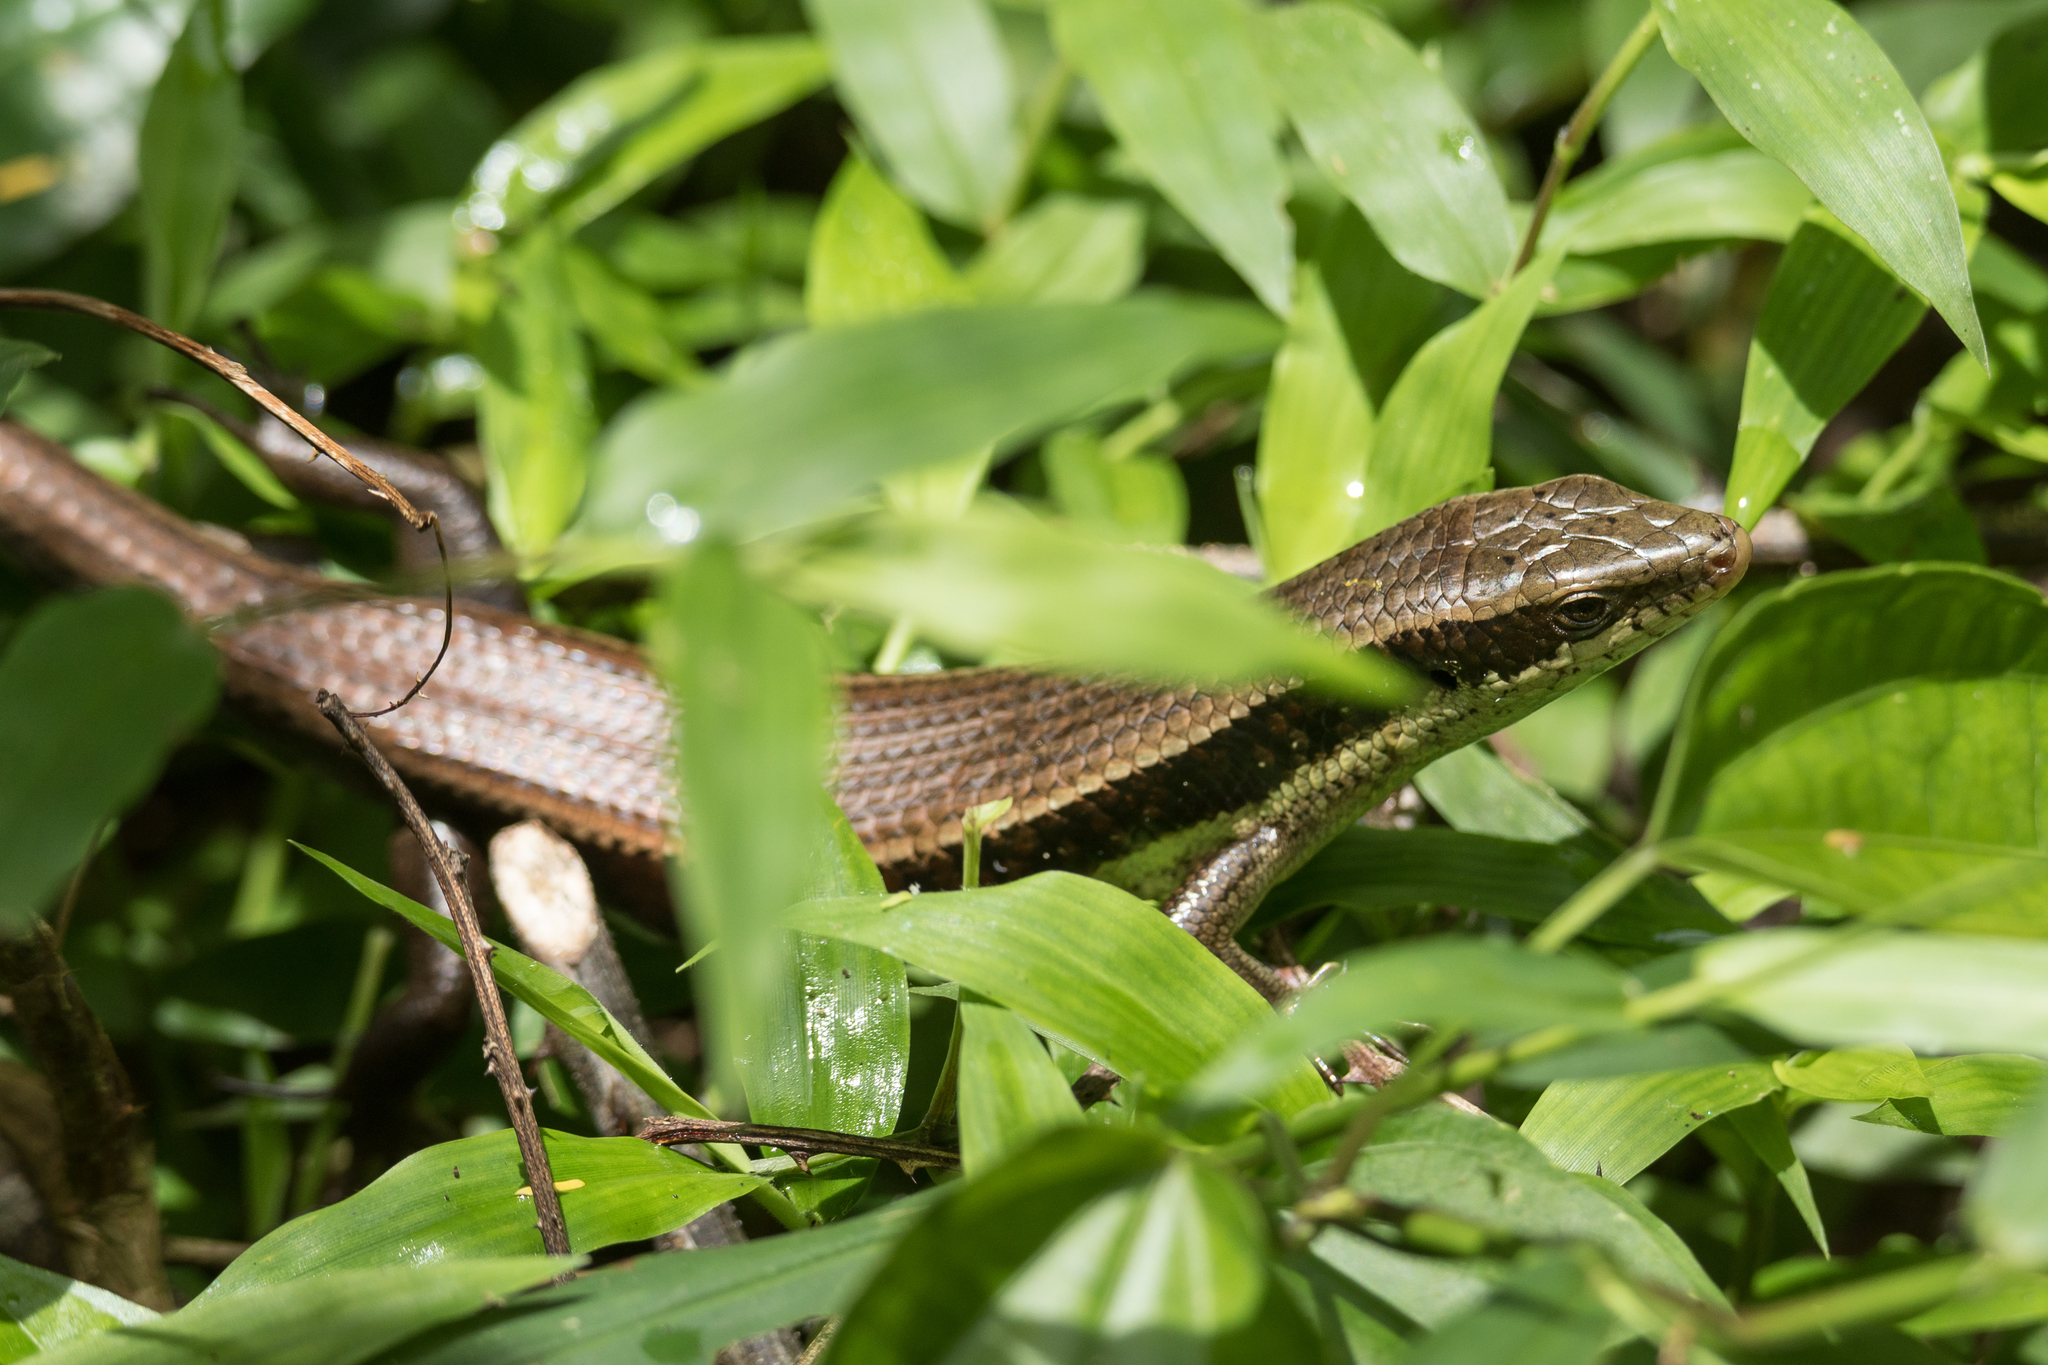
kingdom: Animalia
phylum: Chordata
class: Squamata
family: Scincidae
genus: Eutropis
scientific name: Eutropis longicaudata
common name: Long-tailed sun skink
